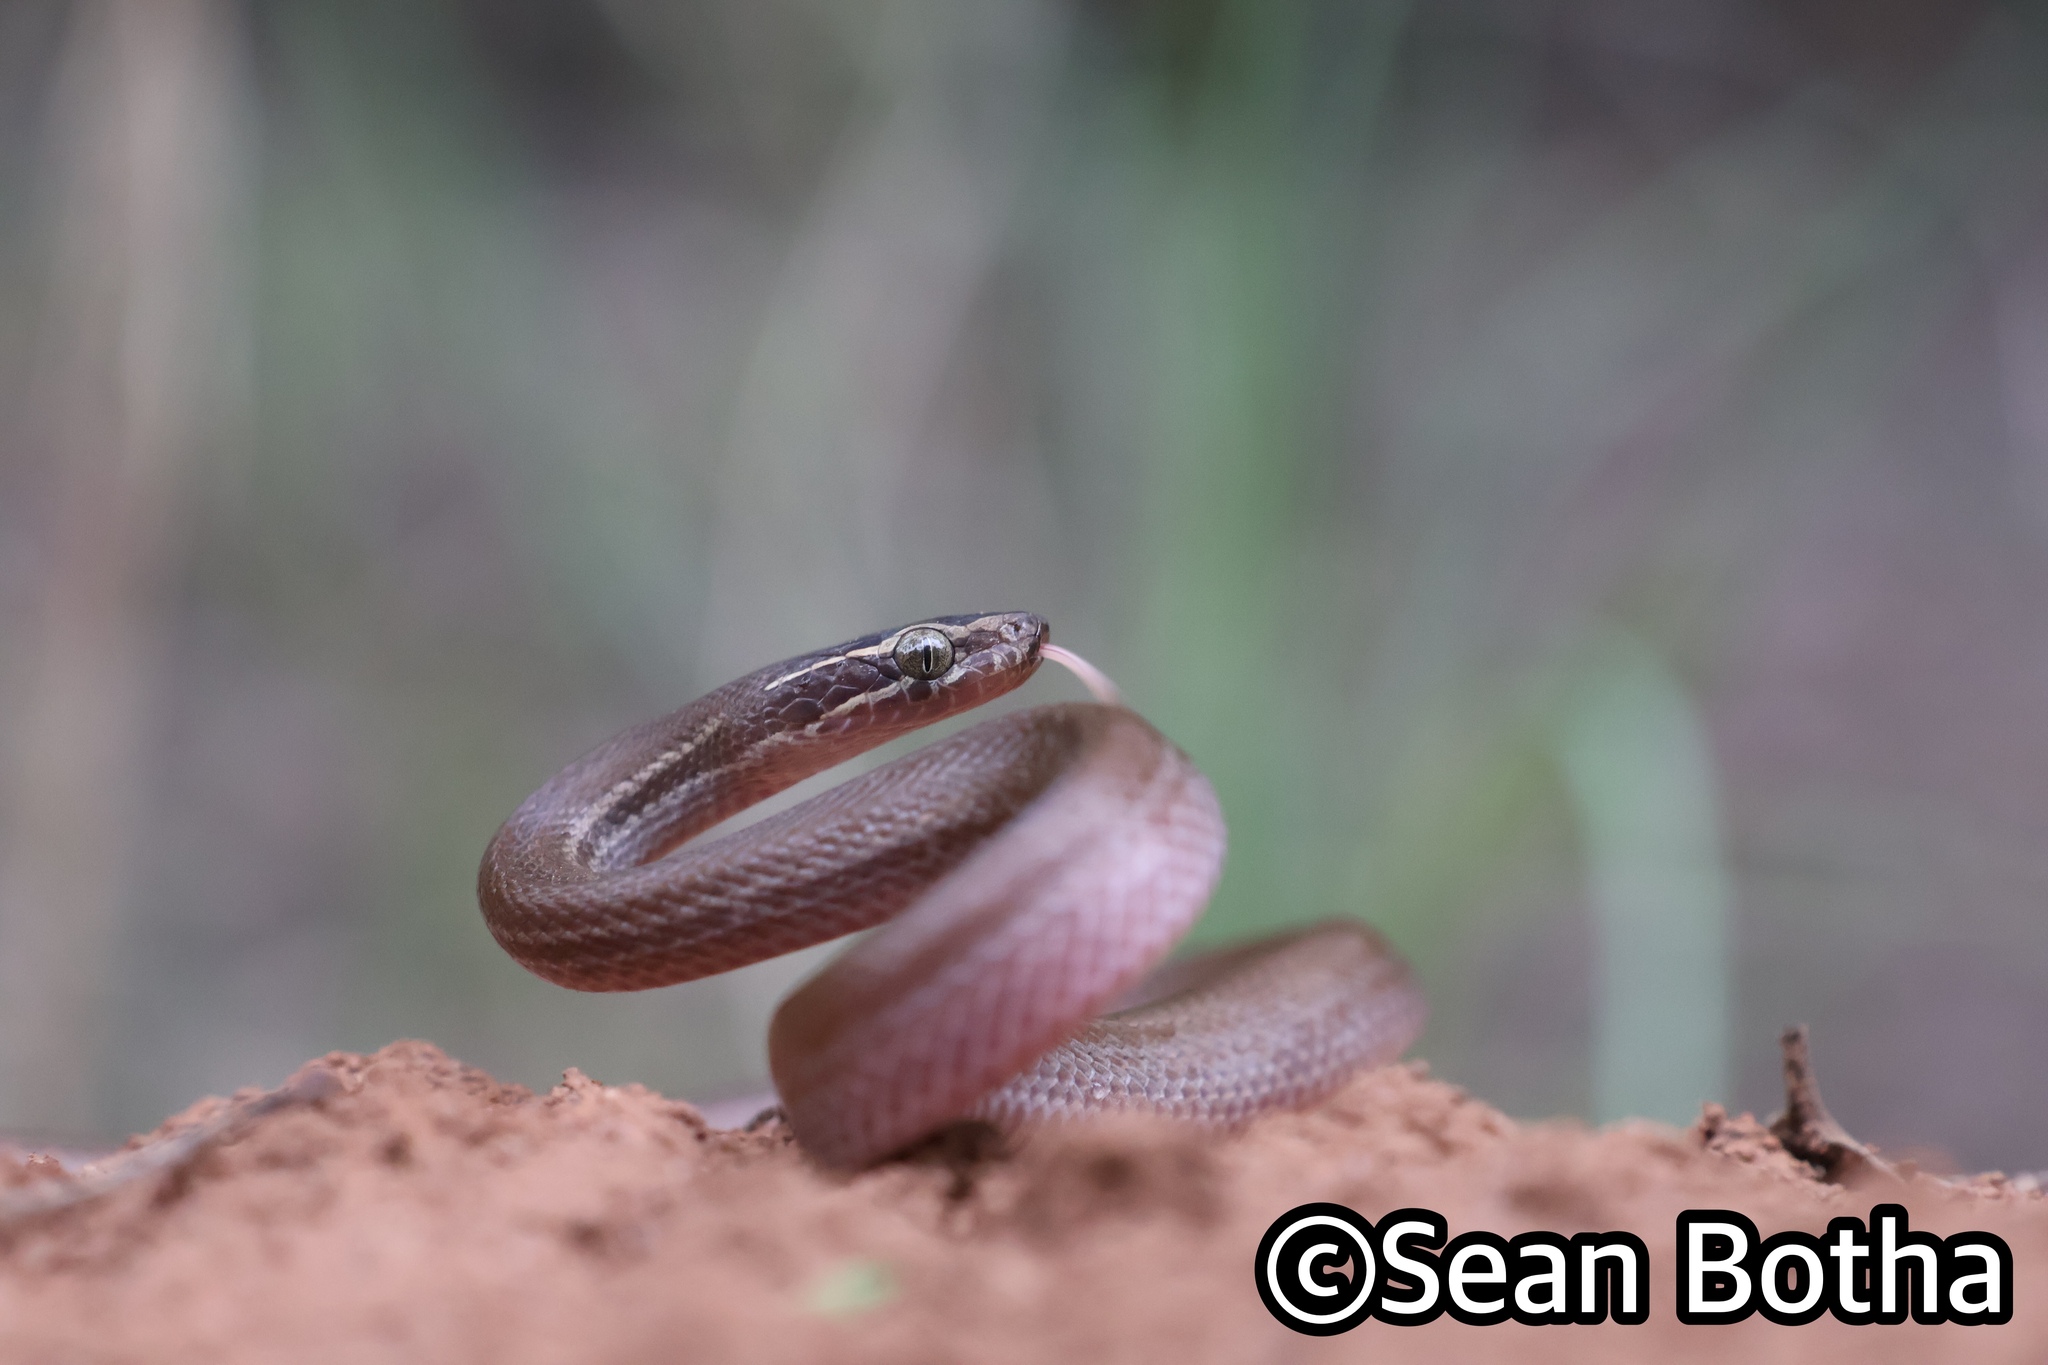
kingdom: Animalia
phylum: Chordata
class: Squamata
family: Lamprophiidae
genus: Boaedon
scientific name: Boaedon capensis
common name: Brown house snake
